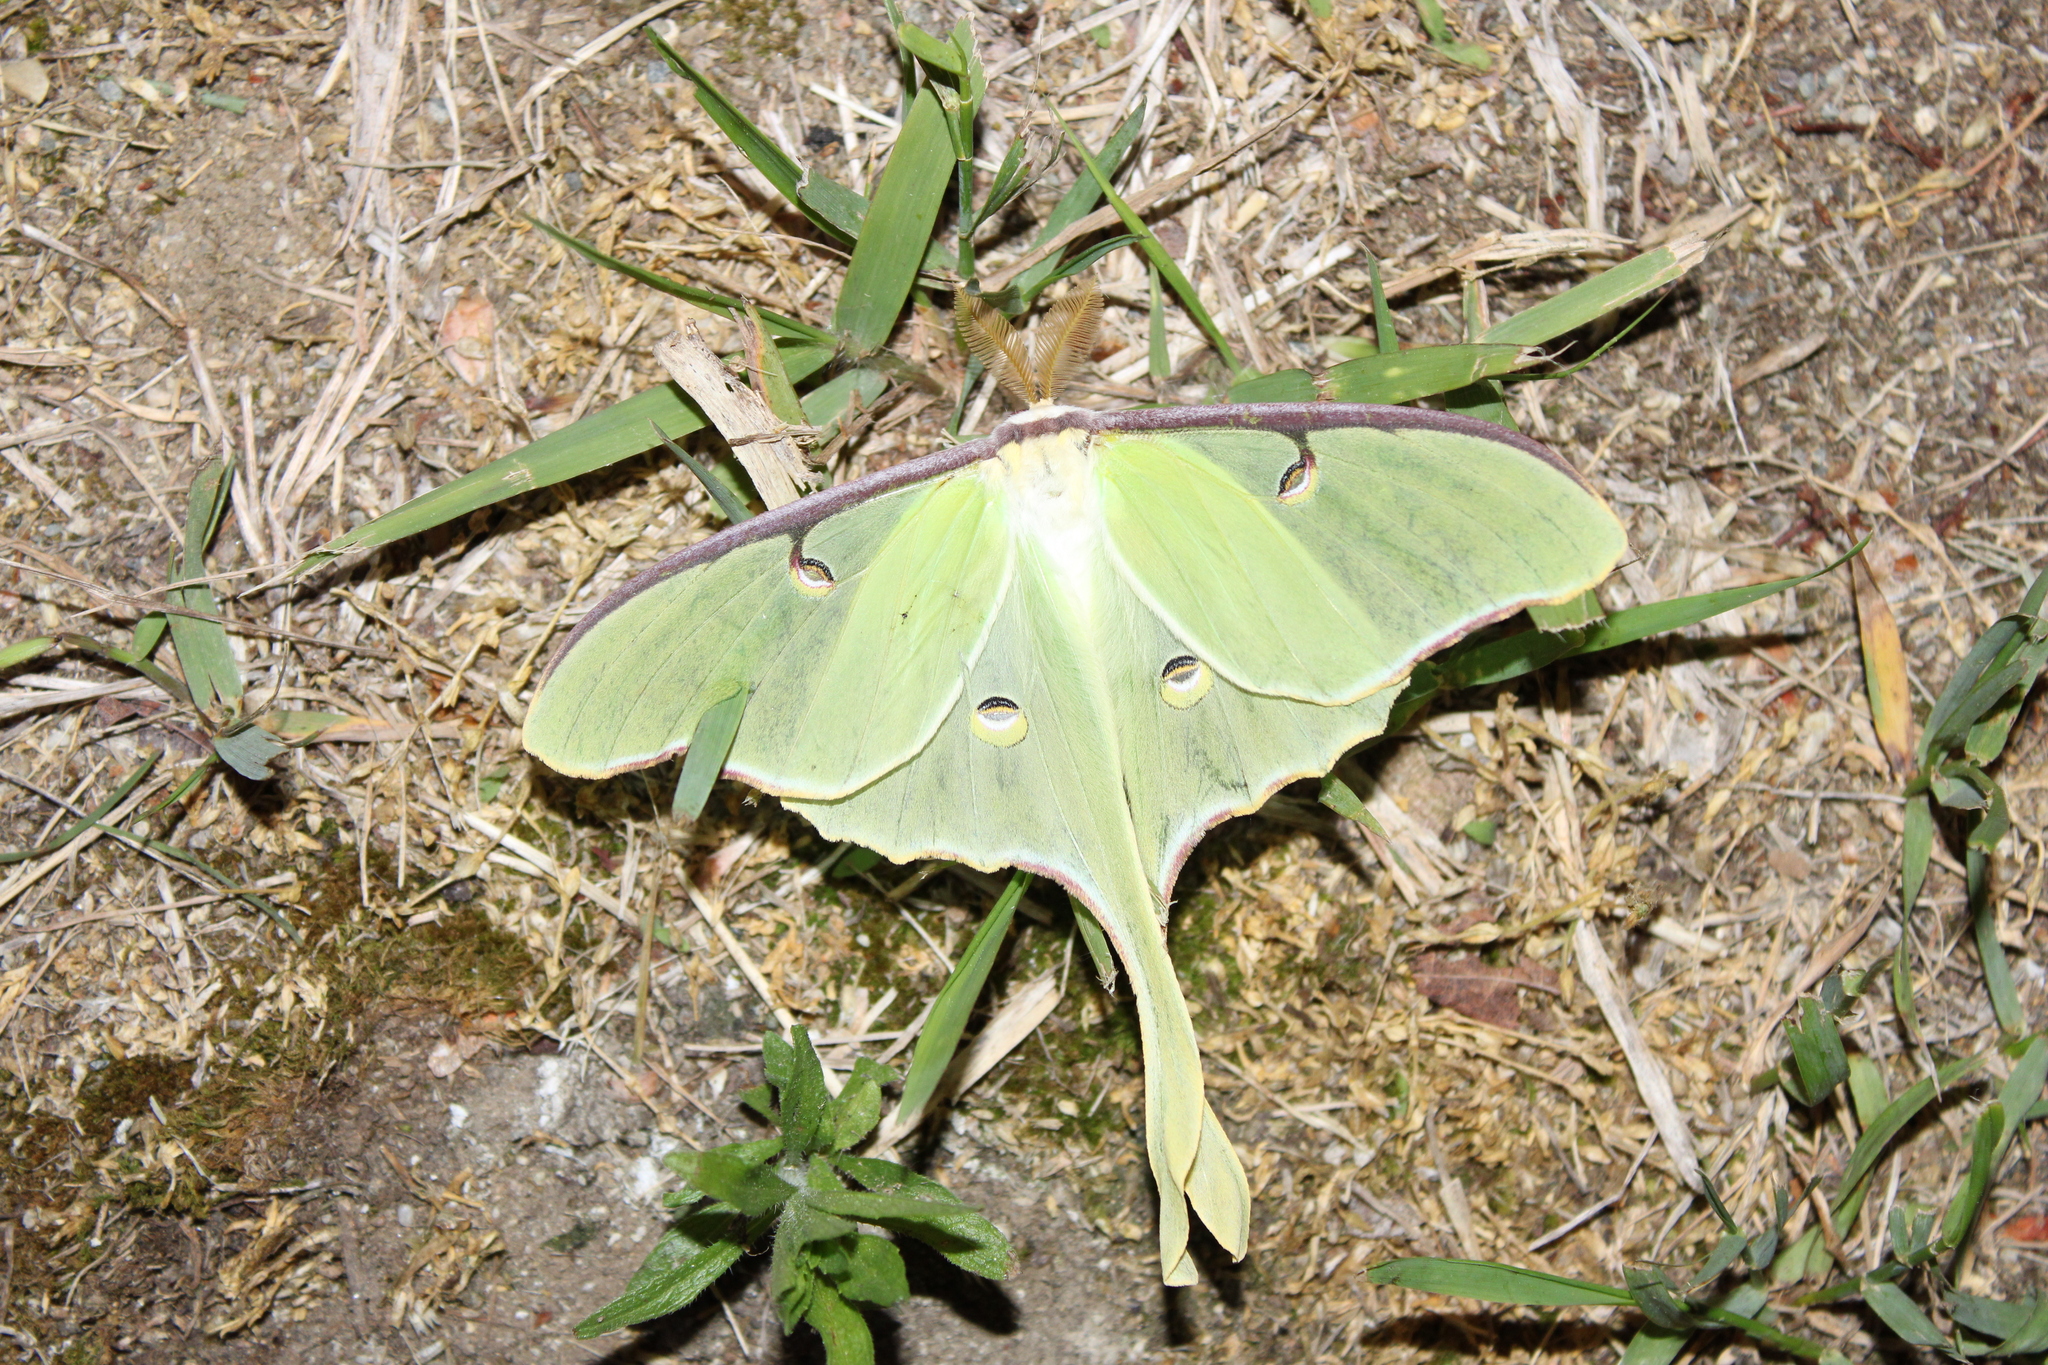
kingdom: Animalia
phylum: Arthropoda
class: Insecta
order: Lepidoptera
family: Saturniidae
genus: Actias
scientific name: Actias luna
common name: Luna moth
